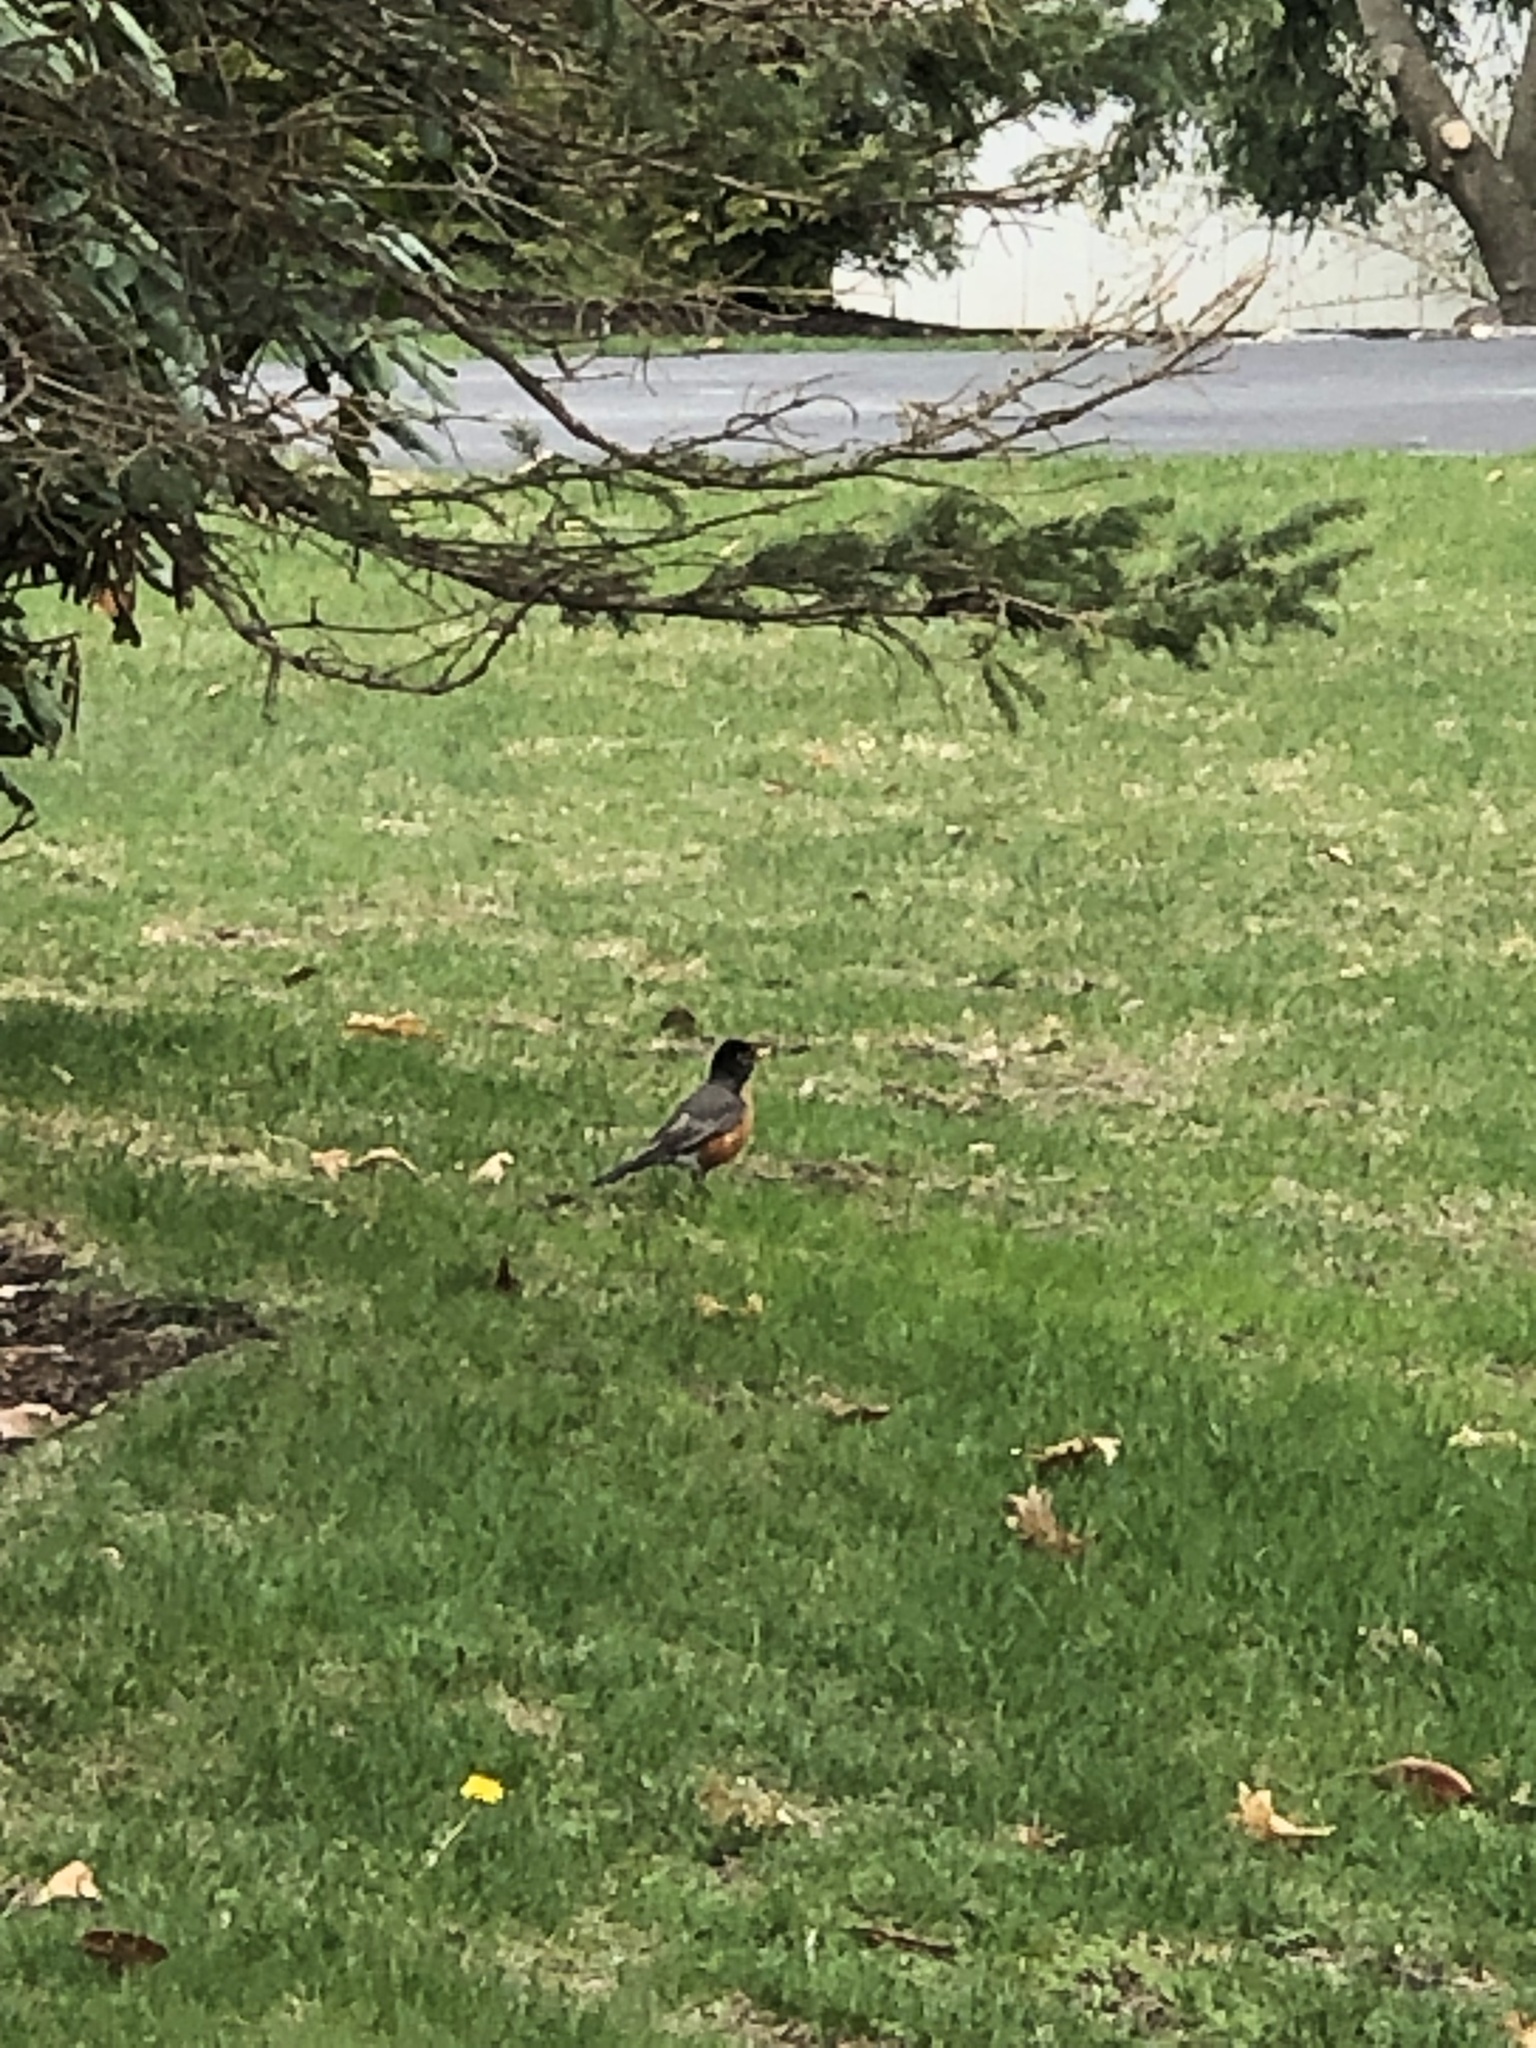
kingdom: Animalia
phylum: Chordata
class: Aves
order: Passeriformes
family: Turdidae
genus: Turdus
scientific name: Turdus migratorius
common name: American robin
